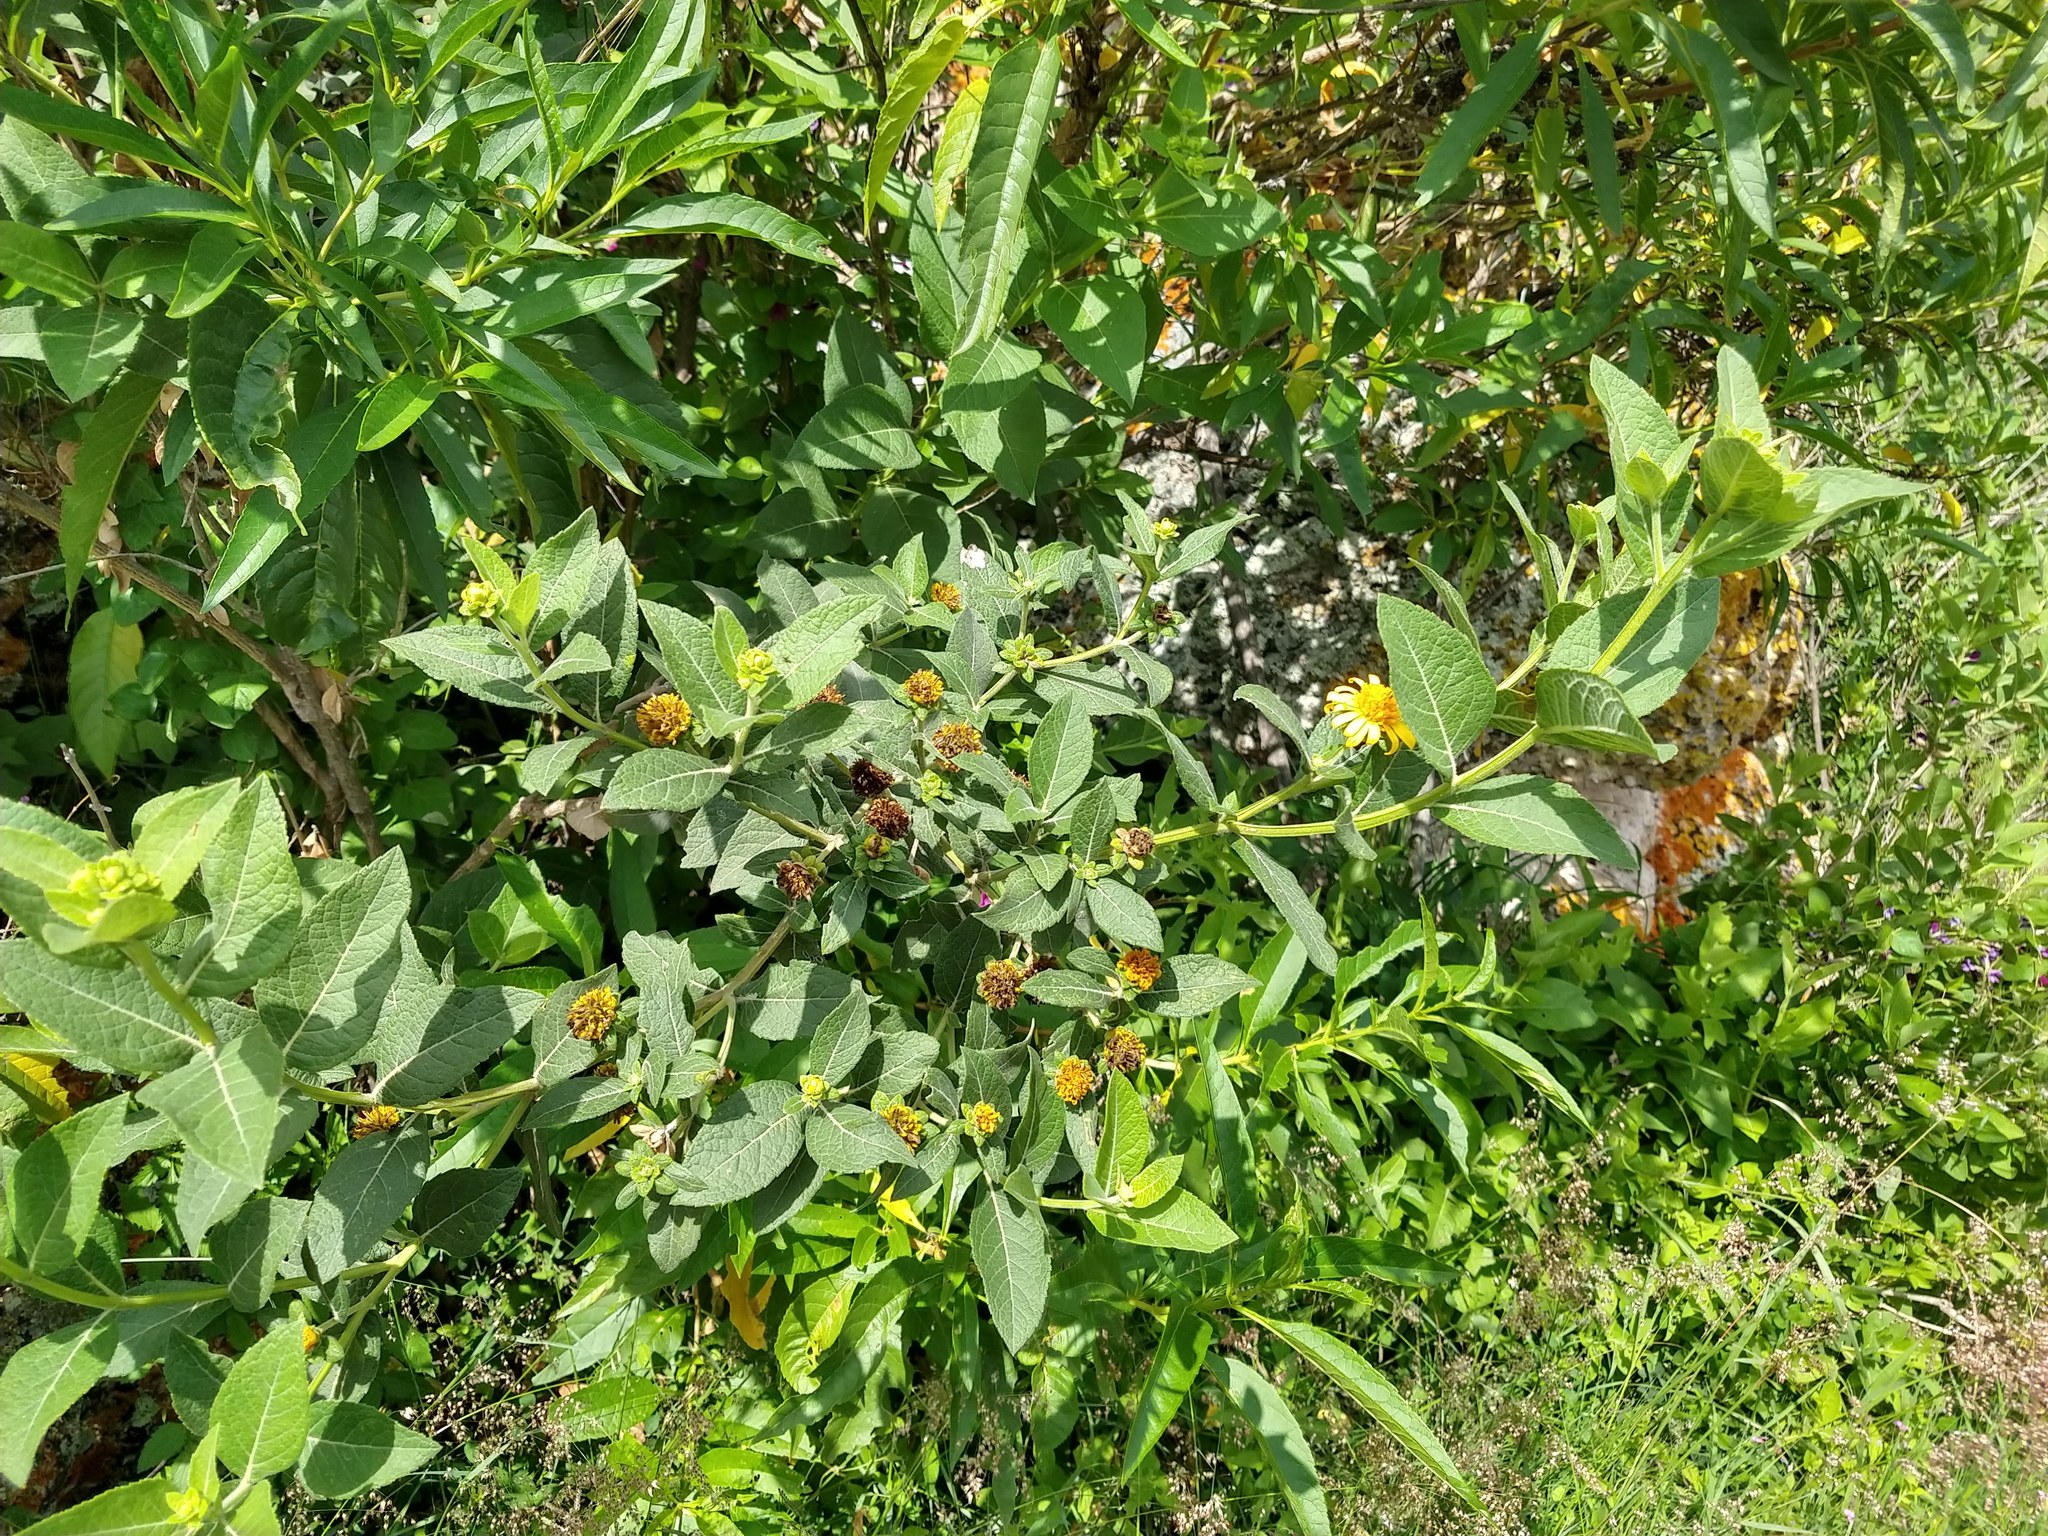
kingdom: Plantae
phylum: Tracheophyta
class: Magnoliopsida
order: Asterales
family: Asteraceae
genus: Verbesina
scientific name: Verbesina sphaerocephala
